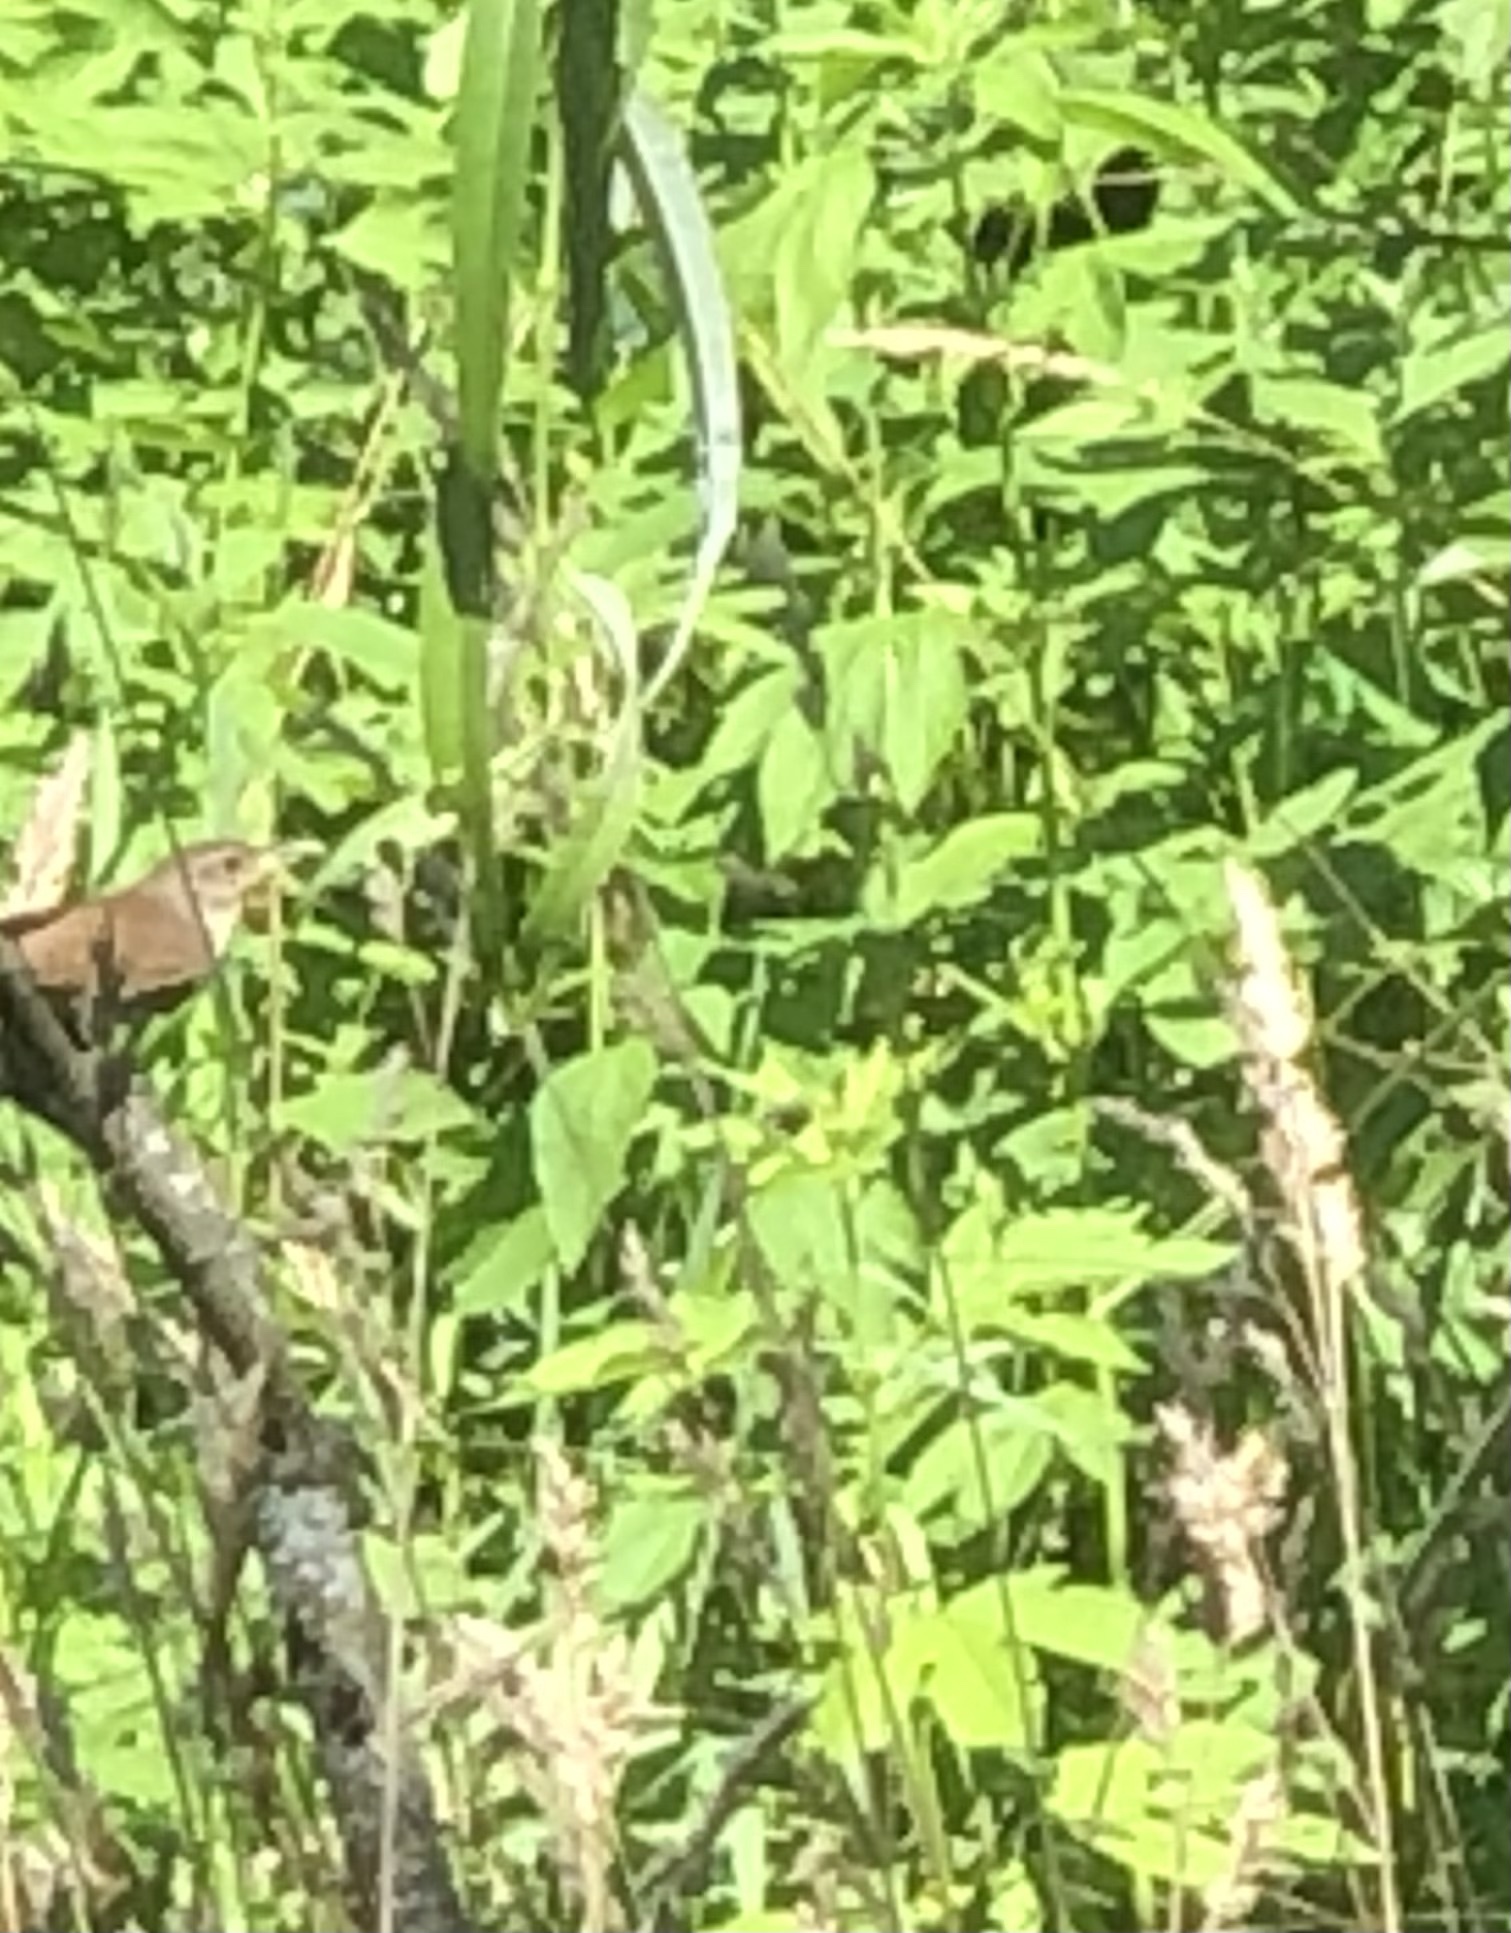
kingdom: Animalia
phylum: Chordata
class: Aves
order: Passeriformes
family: Troglodytidae
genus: Troglodytes
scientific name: Troglodytes aedon
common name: House wren
